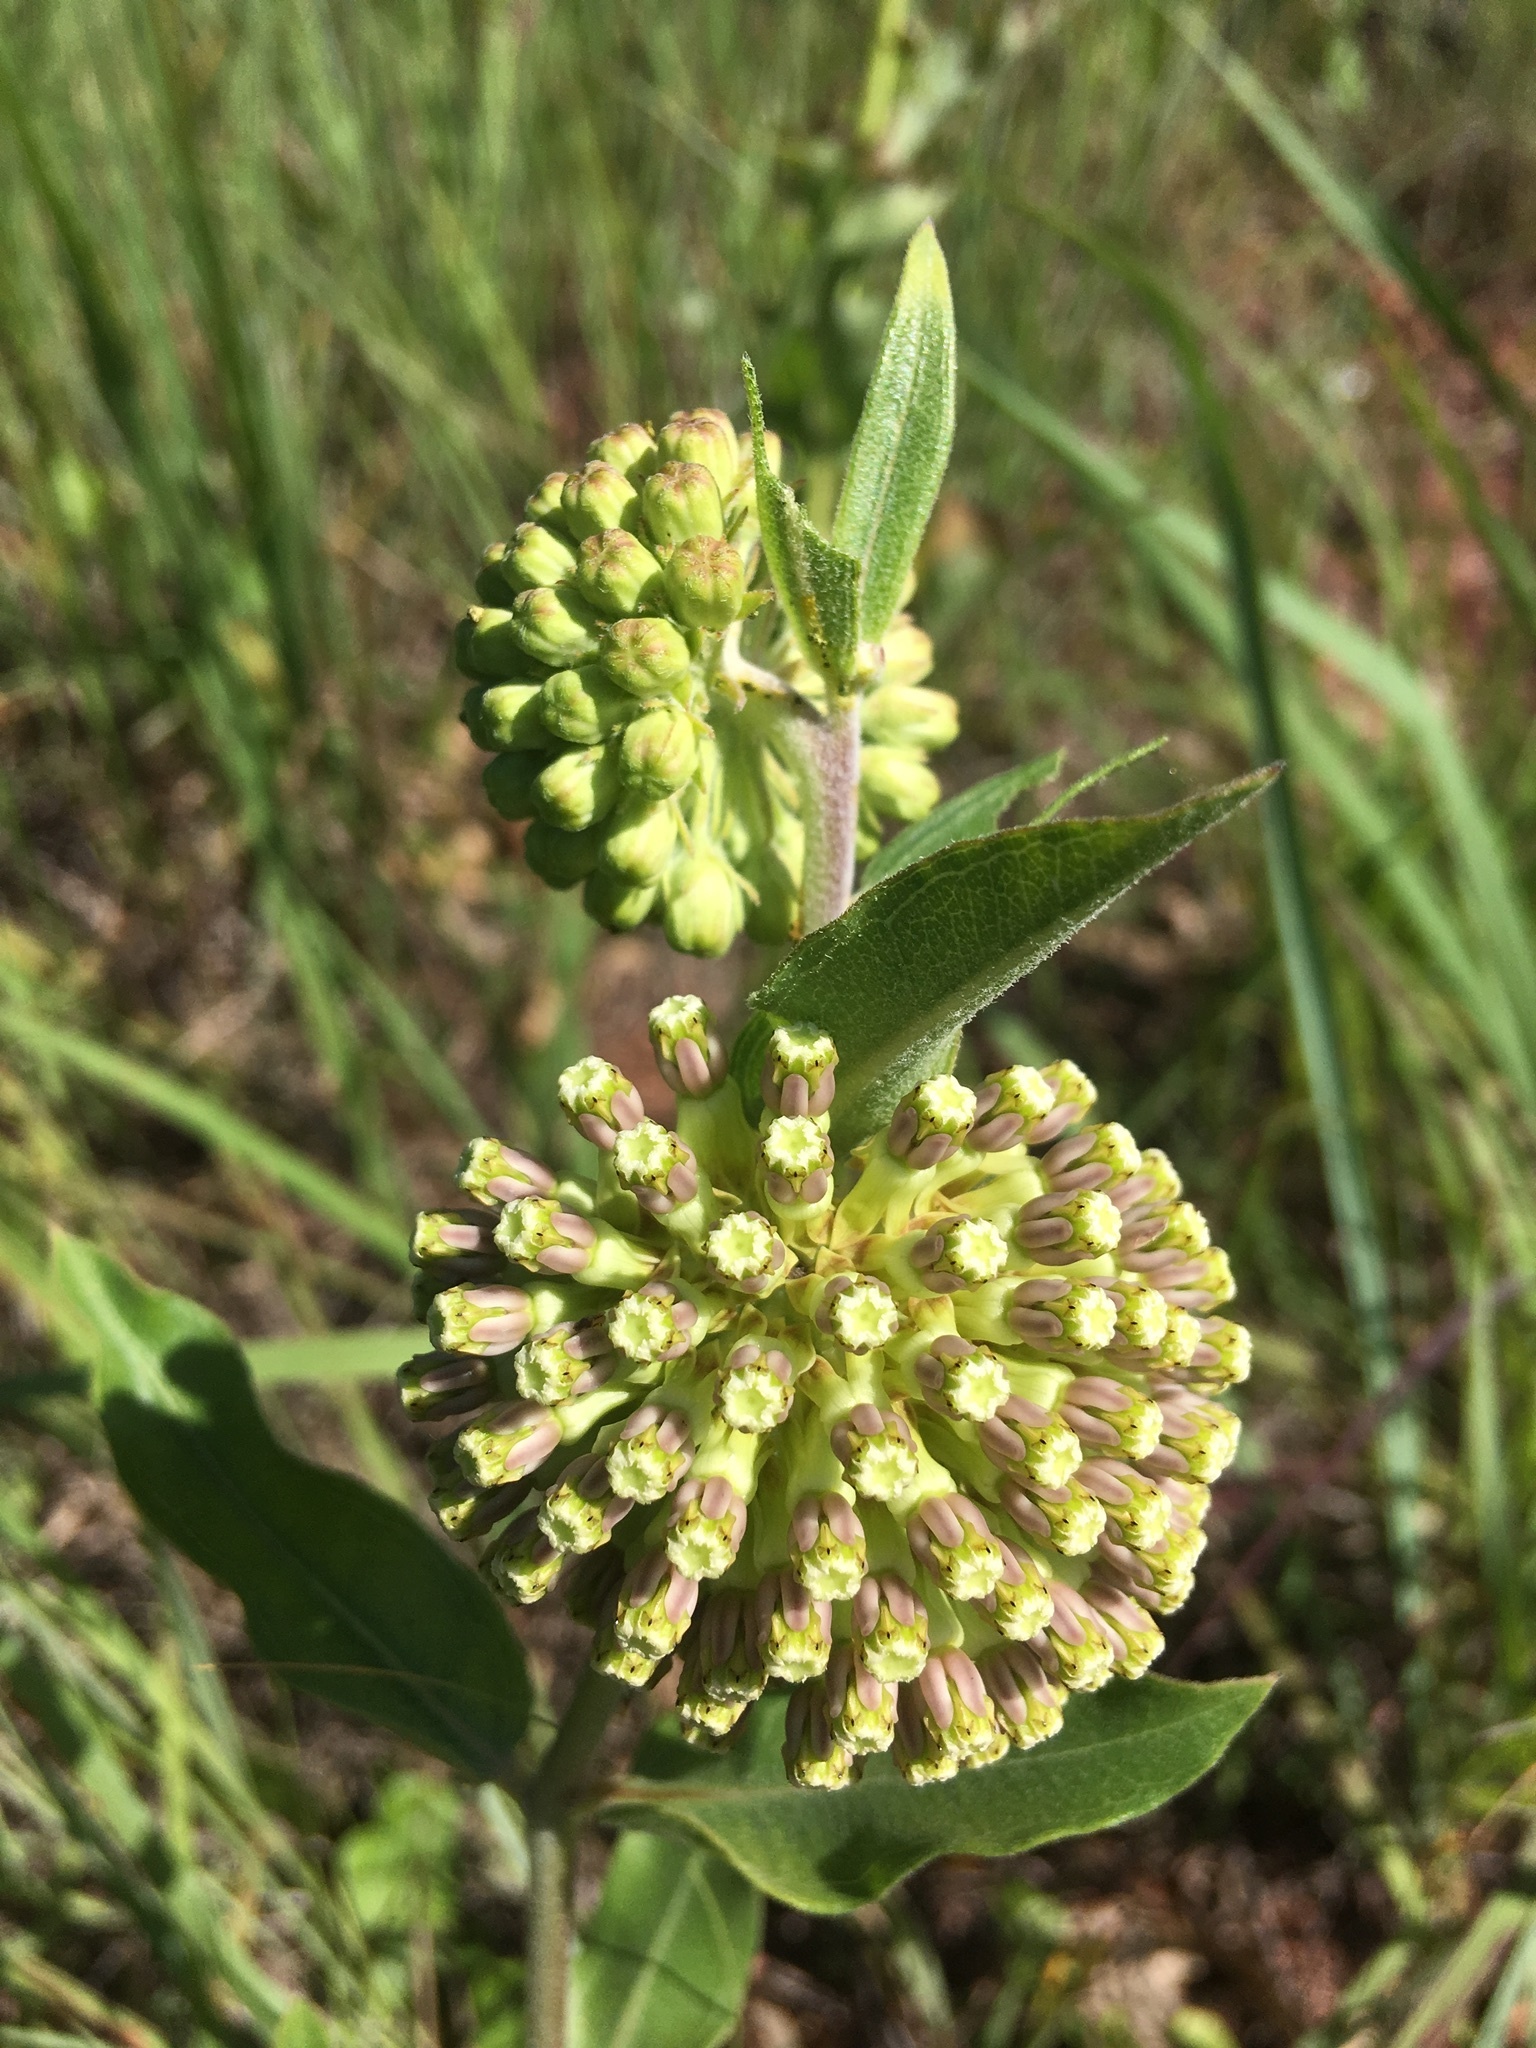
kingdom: Plantae
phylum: Tracheophyta
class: Magnoliopsida
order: Gentianales
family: Apocynaceae
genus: Asclepias
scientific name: Asclepias viridiflora
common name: Green comet milkweed
